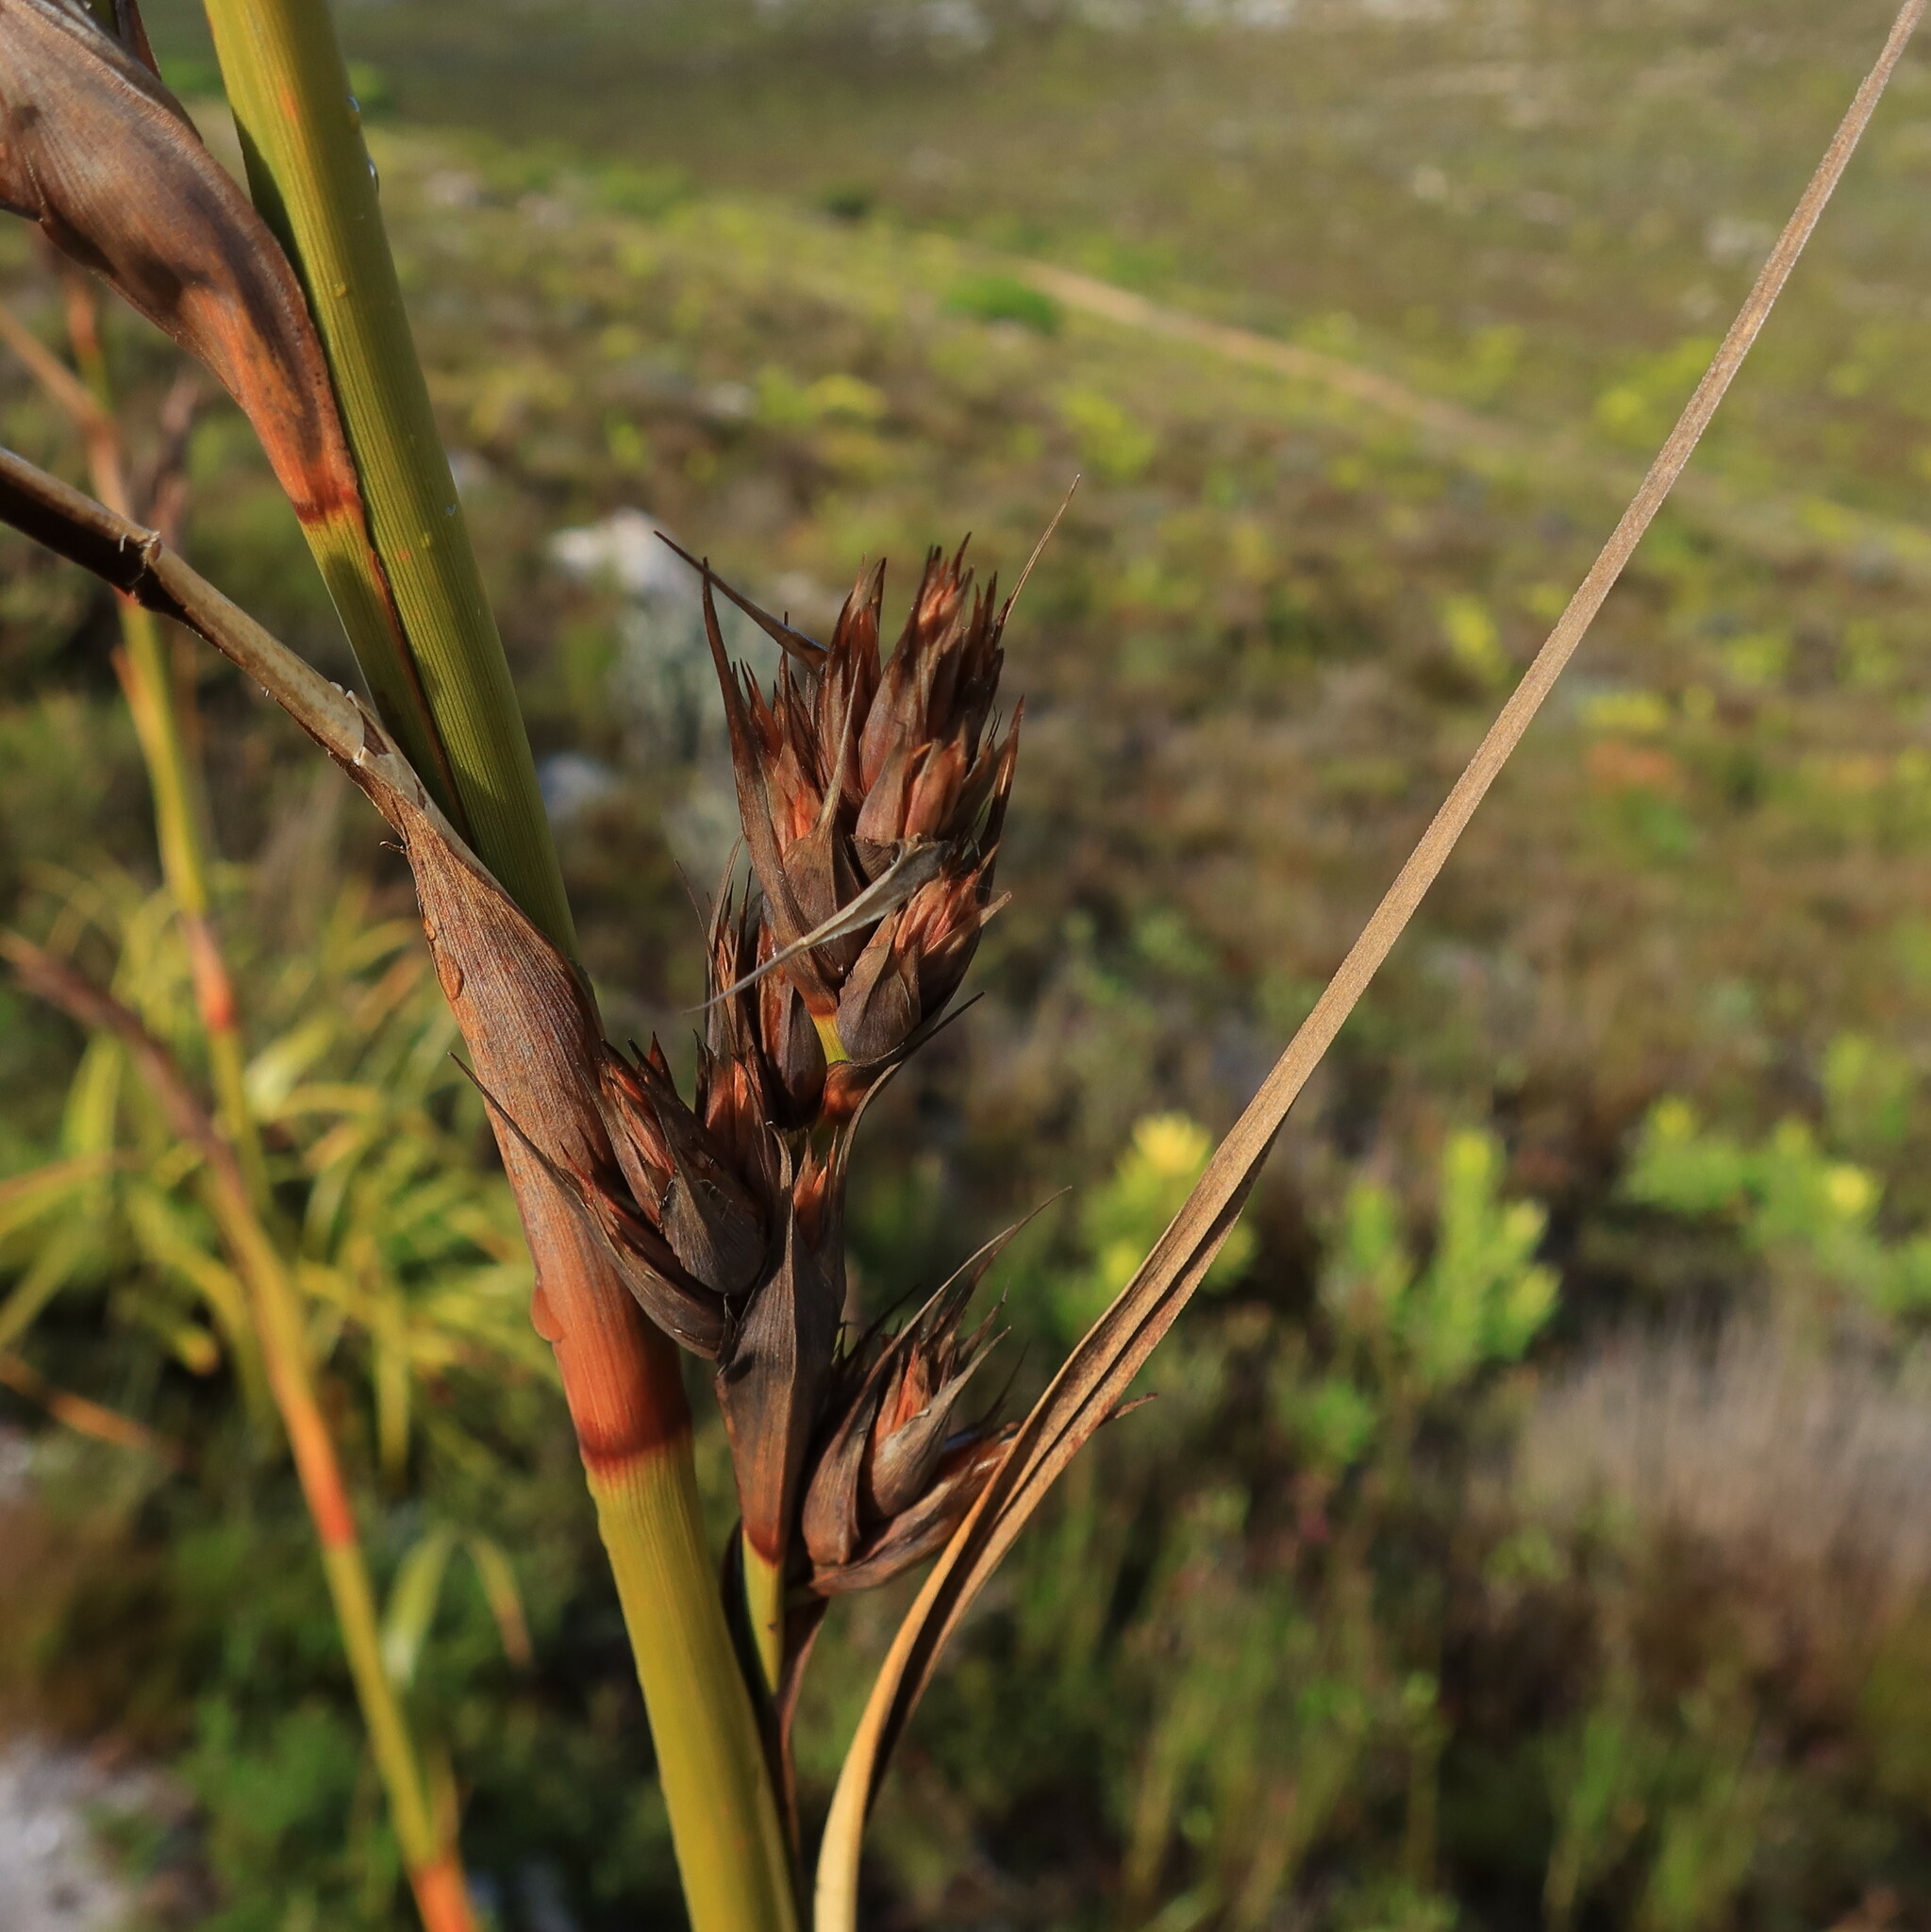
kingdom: Plantae
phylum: Tracheophyta
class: Liliopsida
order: Poales
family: Cyperaceae
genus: Tetraria
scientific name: Tetraria thermalis
